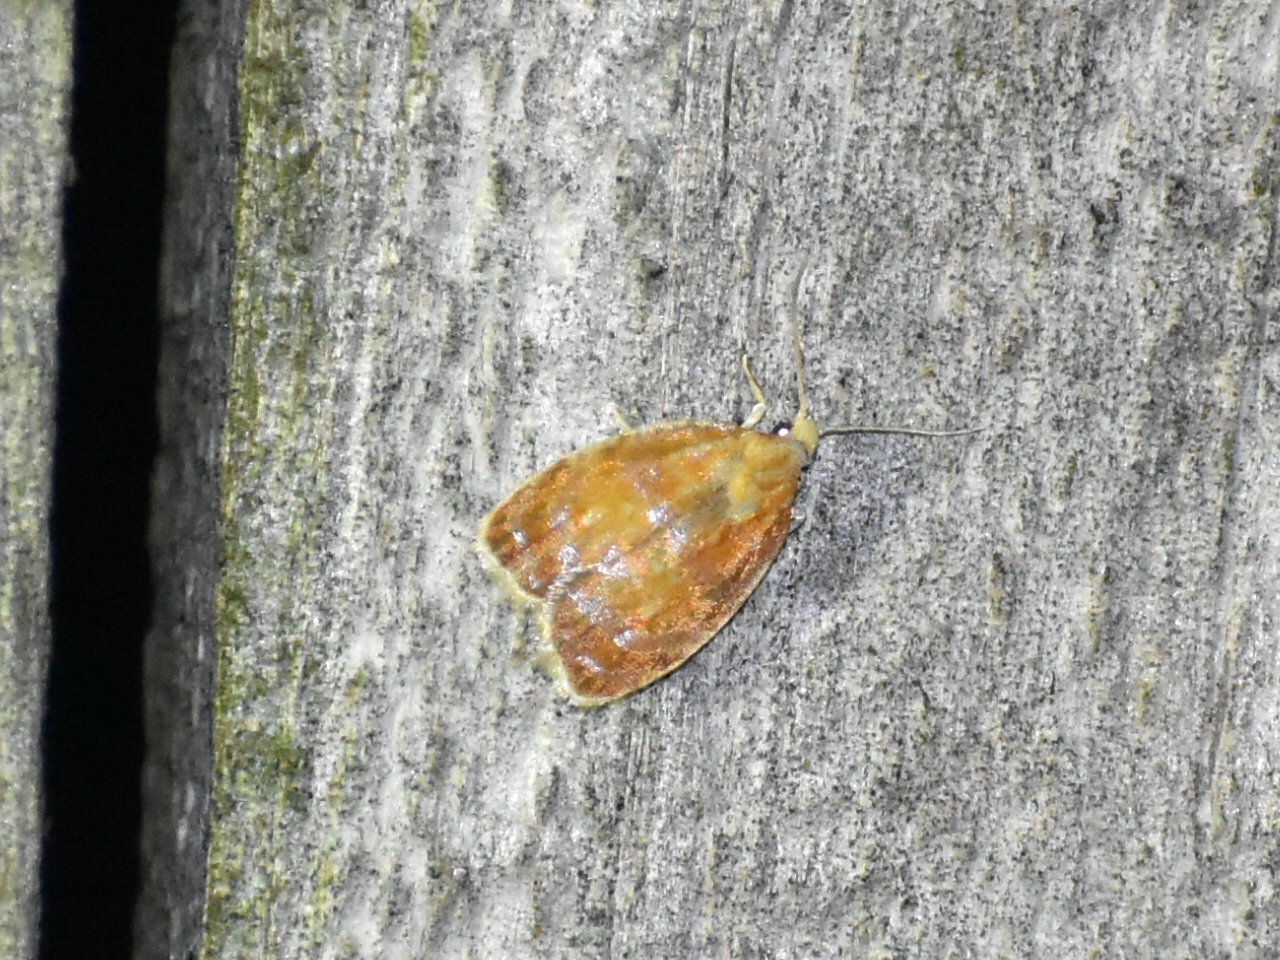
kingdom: Animalia
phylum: Arthropoda
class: Insecta
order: Lepidoptera
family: Tortricidae
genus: Acleris
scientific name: Acleris curvalana
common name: Blueberry leaftier moth
